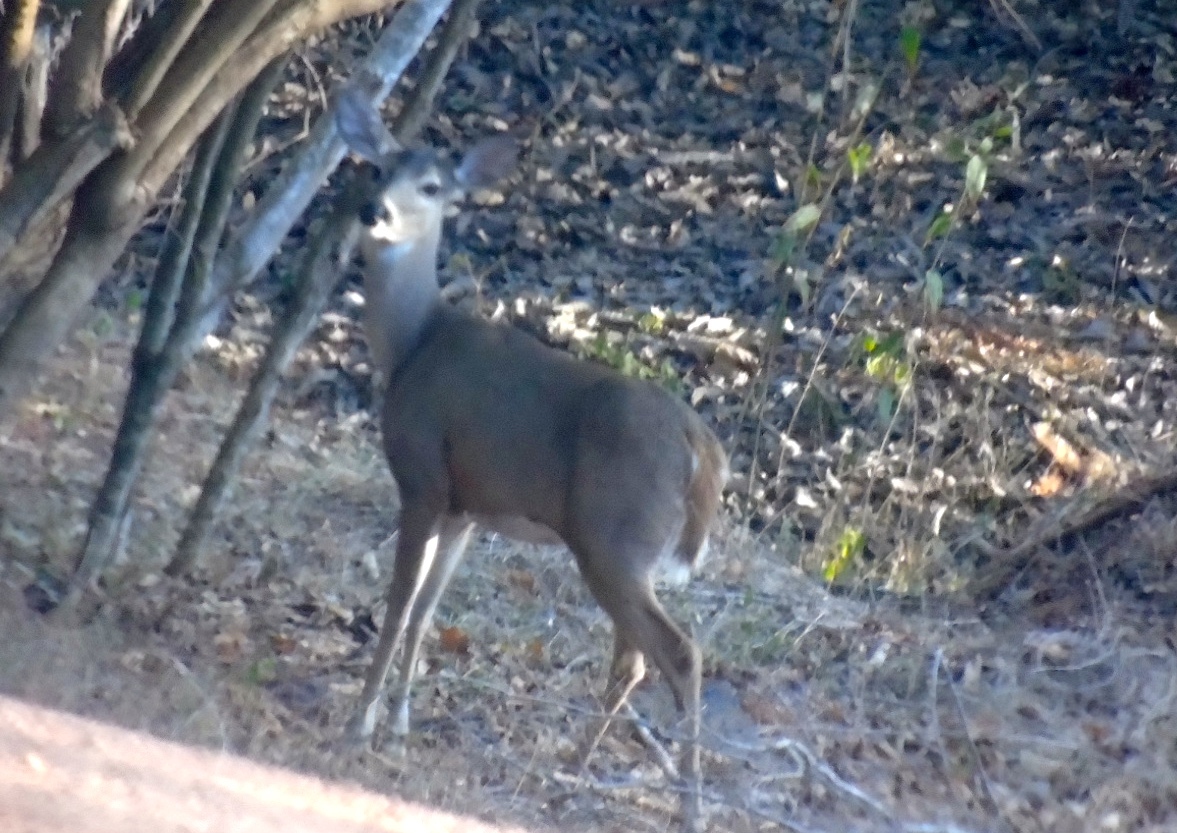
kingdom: Animalia
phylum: Chordata
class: Mammalia
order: Artiodactyla
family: Cervidae
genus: Odocoileus
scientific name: Odocoileus virginianus
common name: White-tailed deer
